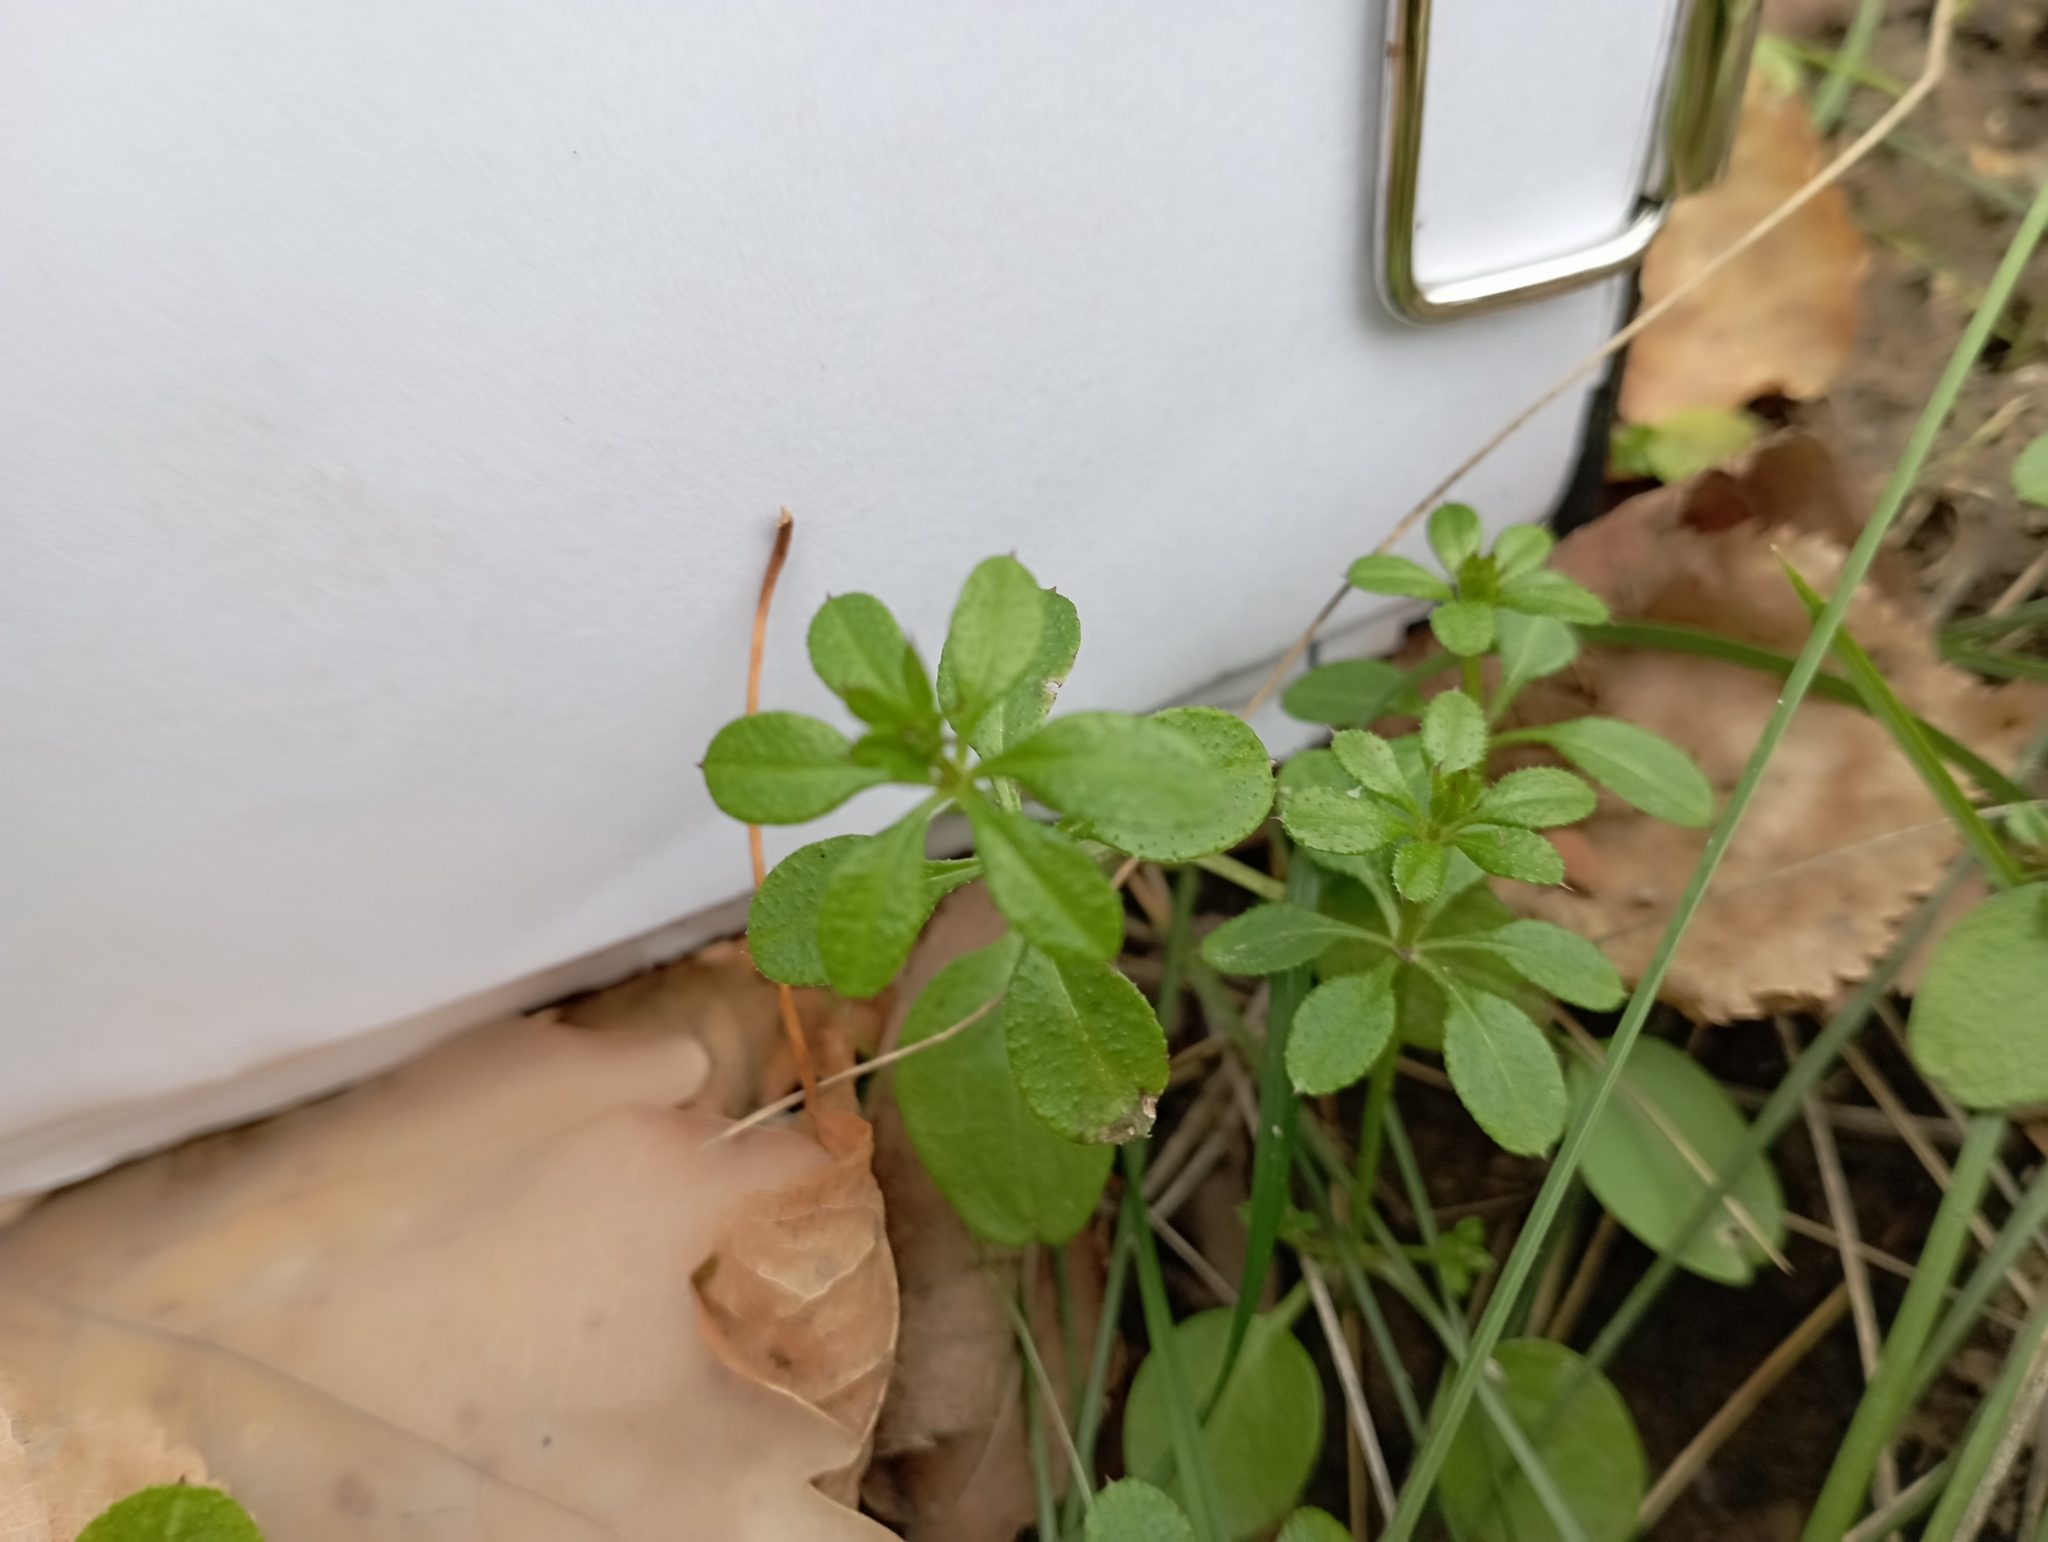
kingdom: Plantae
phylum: Tracheophyta
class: Magnoliopsida
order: Gentianales
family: Rubiaceae
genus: Galium
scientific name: Galium aparine
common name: Cleavers
